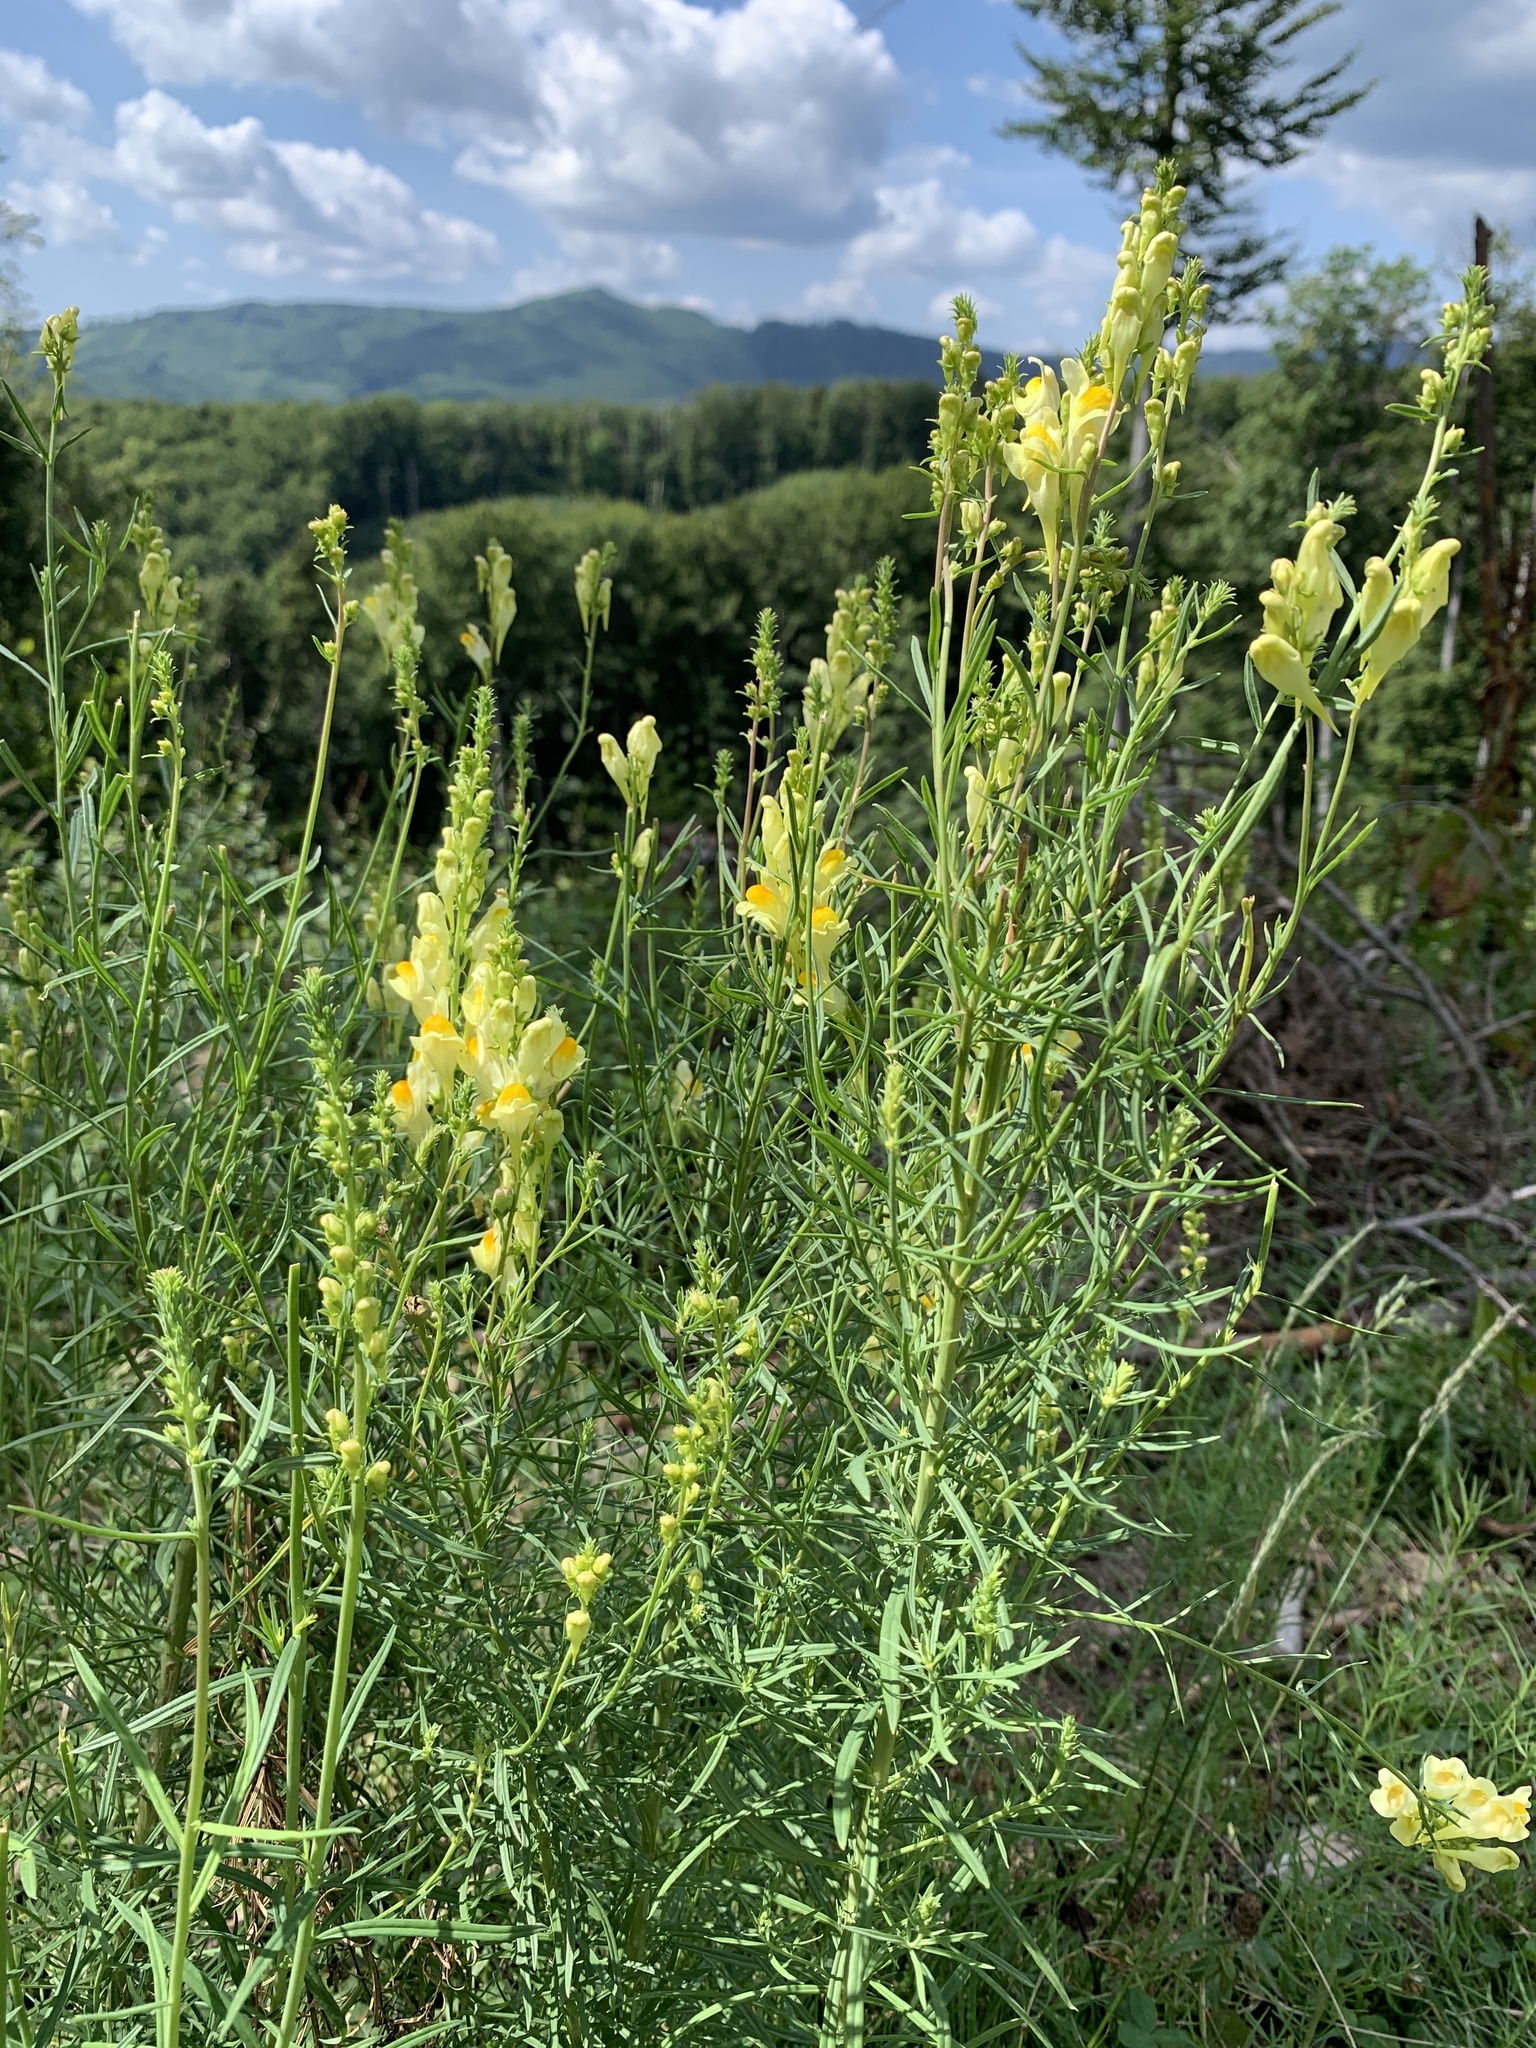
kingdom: Plantae
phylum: Tracheophyta
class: Magnoliopsida
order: Lamiales
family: Plantaginaceae
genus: Linaria
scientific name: Linaria vulgaris
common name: Butter and eggs
